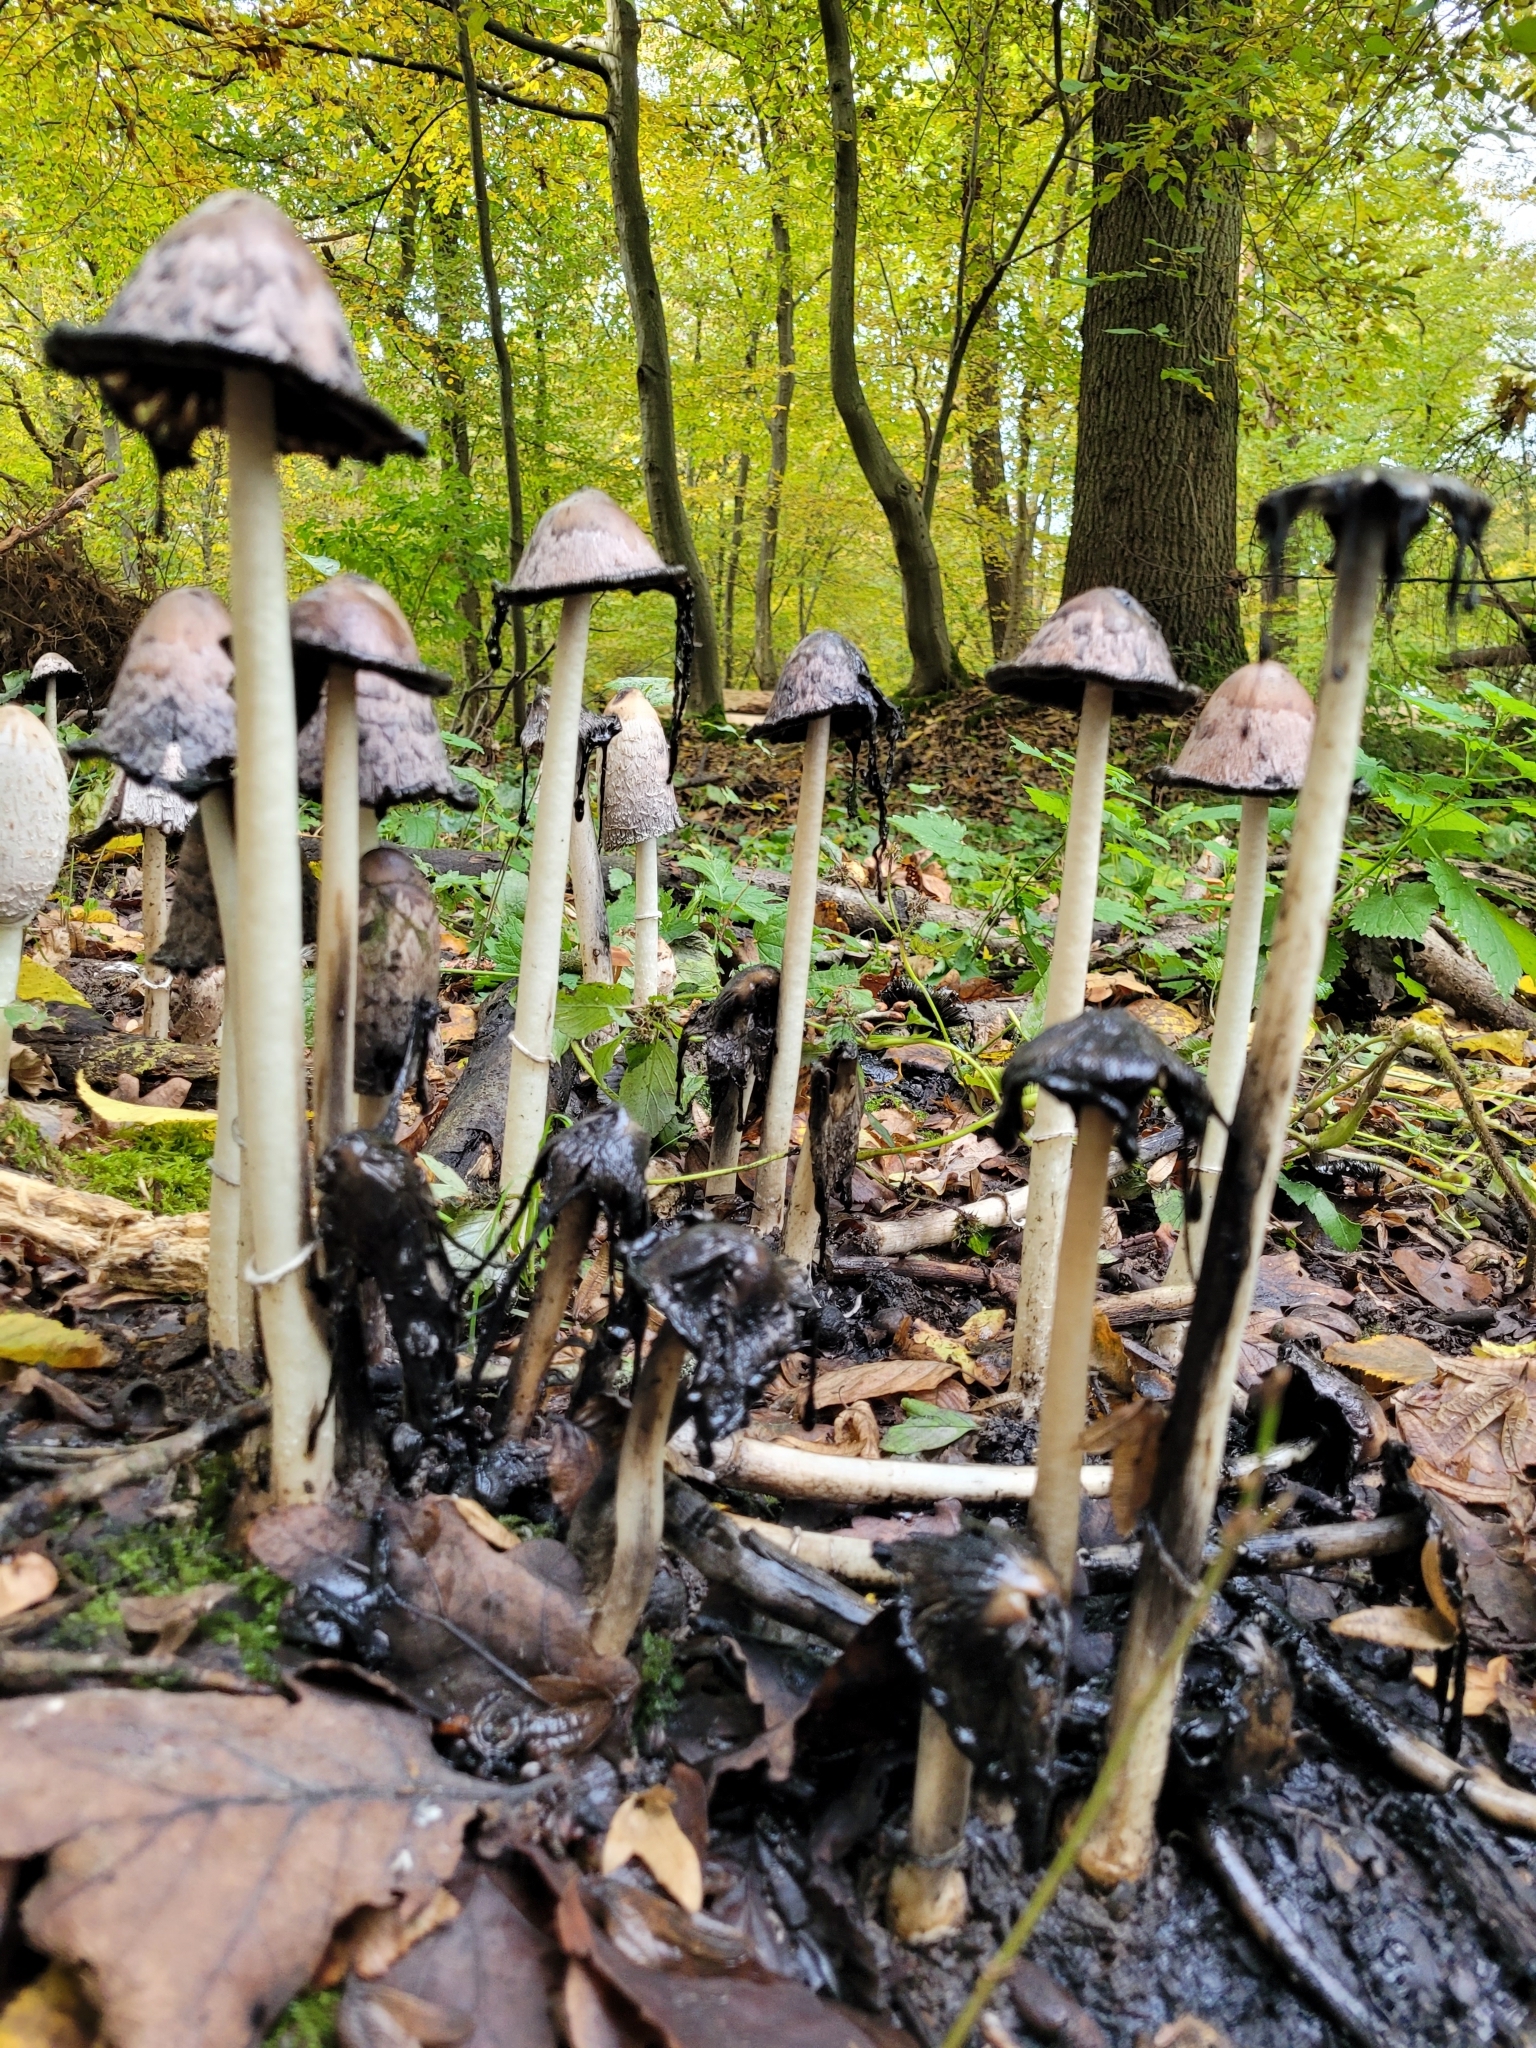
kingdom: Fungi
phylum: Basidiomycota
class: Agaricomycetes
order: Agaricales
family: Agaricaceae
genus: Coprinus
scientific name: Coprinus comatus
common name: Lawyer's wig
